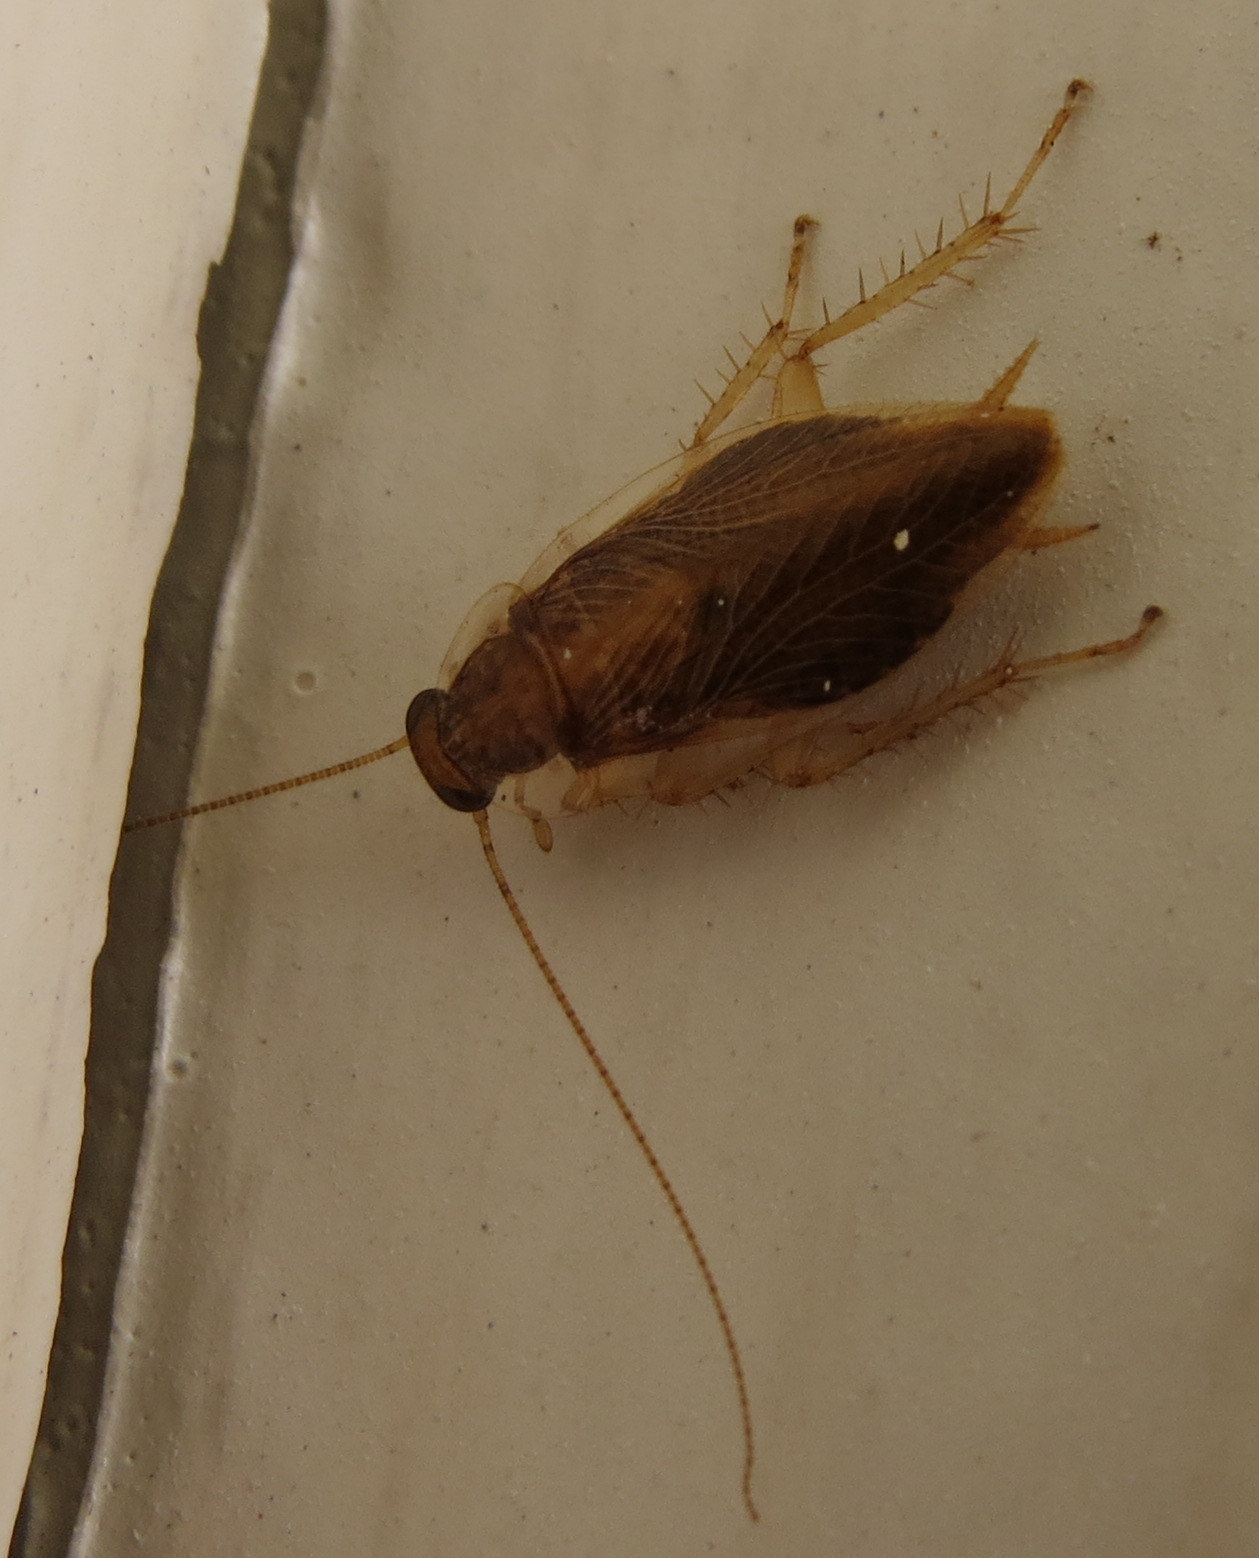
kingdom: Animalia
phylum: Arthropoda
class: Insecta
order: Blattodea
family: Ectobiidae
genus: Blattella
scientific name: Blattella germanica
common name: German cockroach
